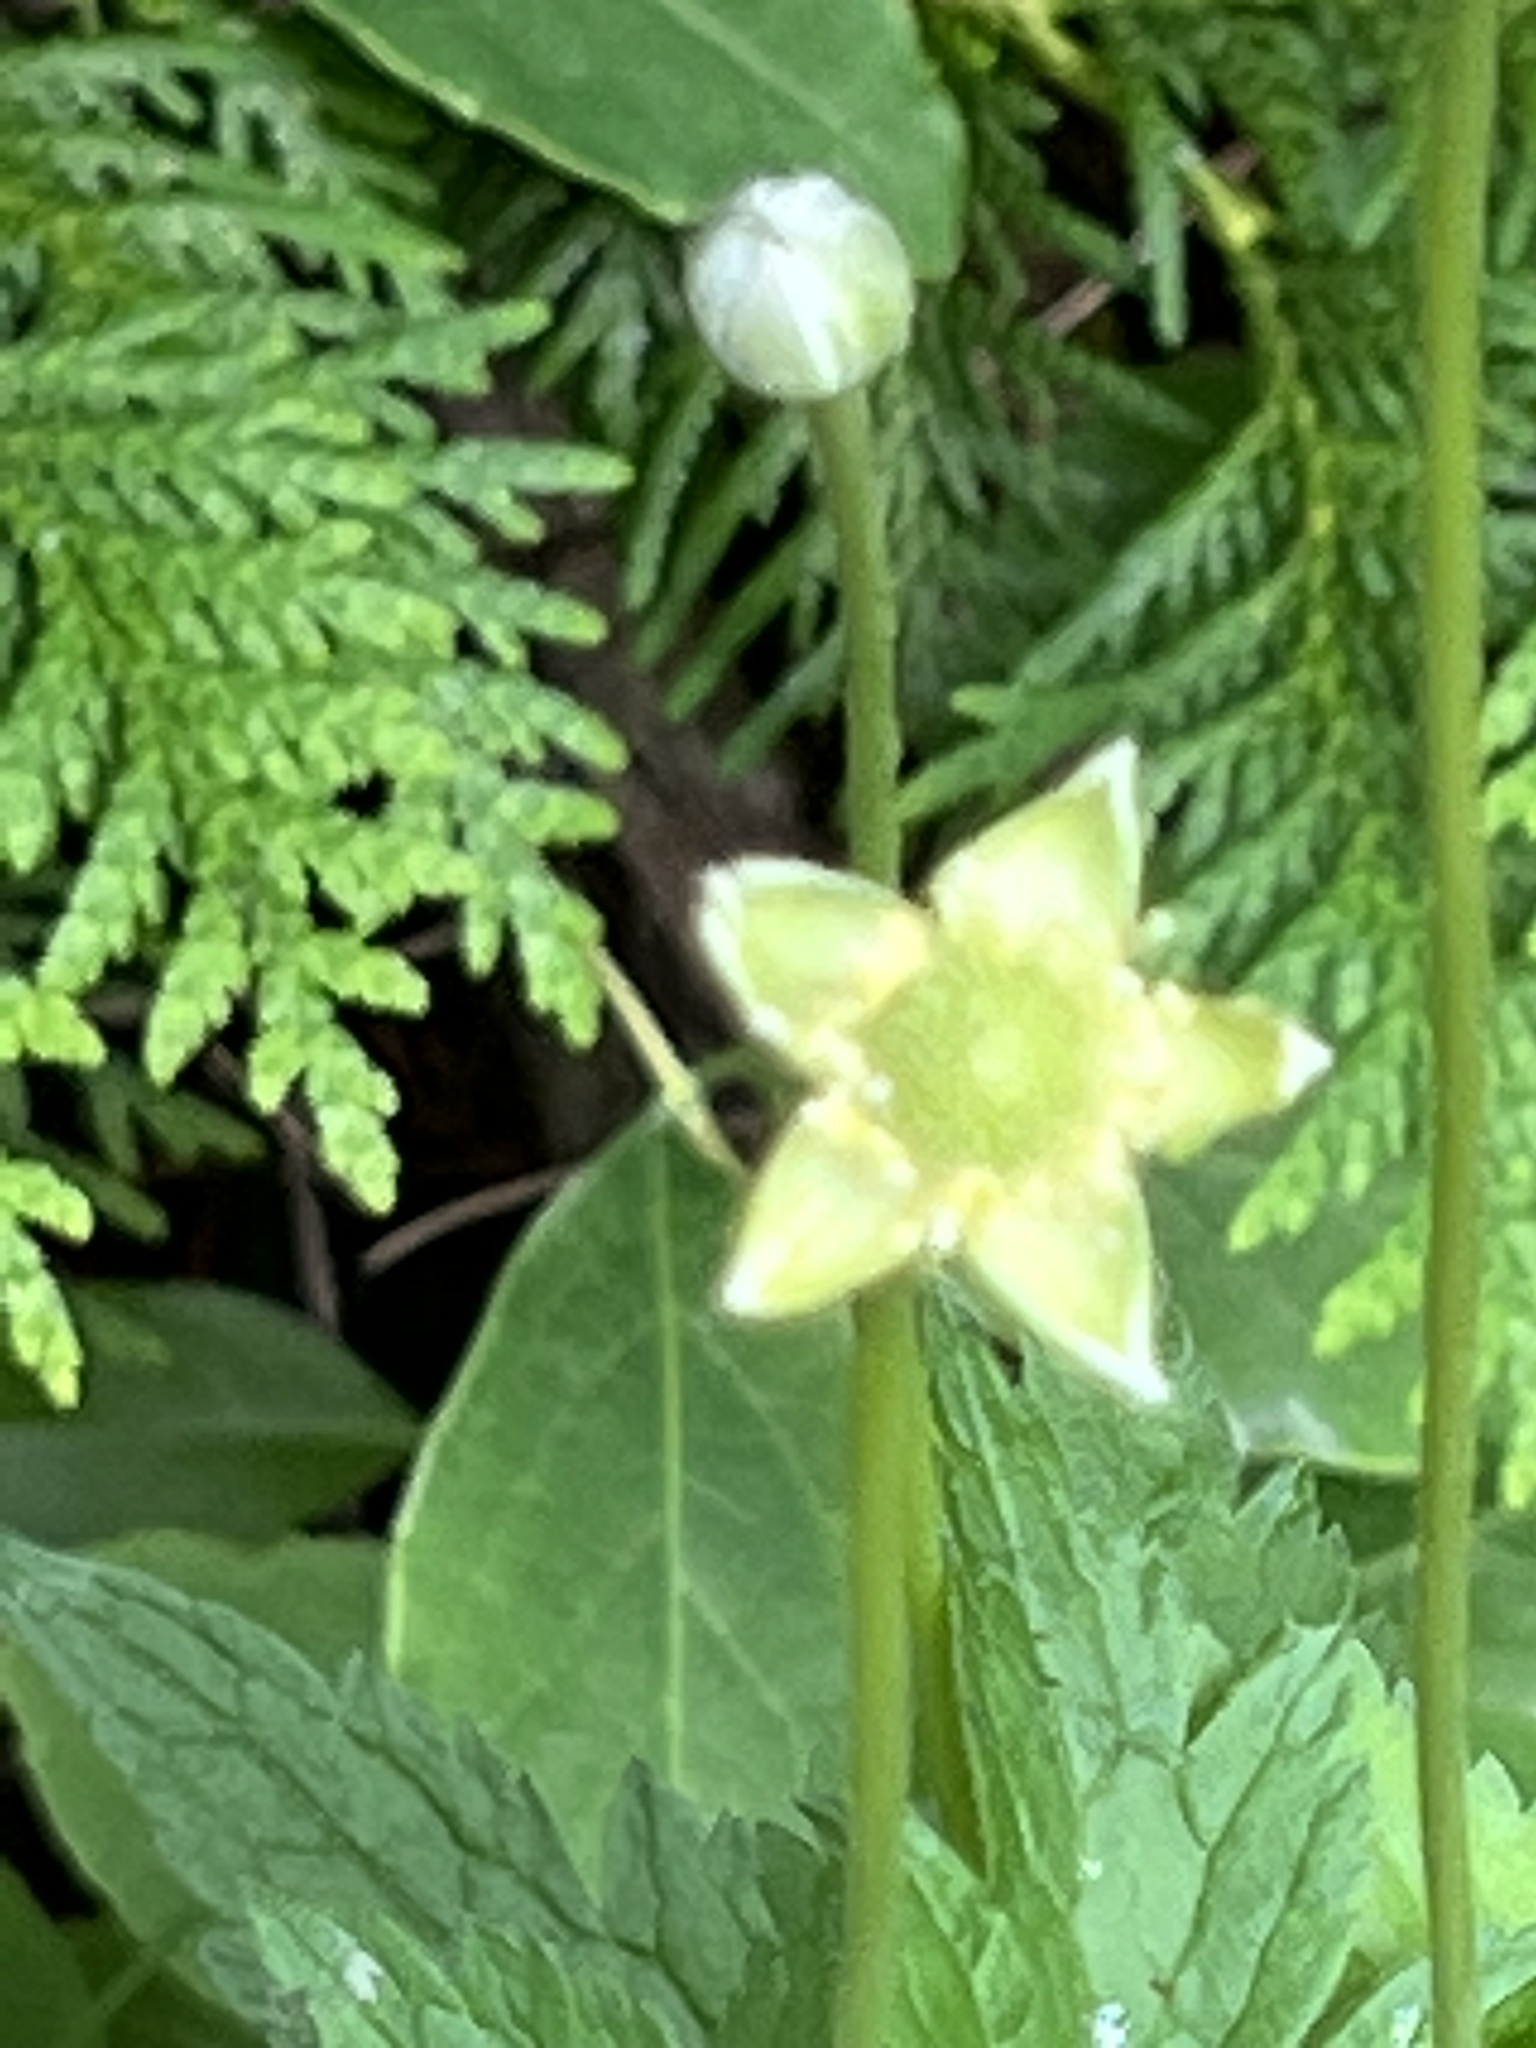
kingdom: Plantae
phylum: Tracheophyta
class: Magnoliopsida
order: Ranunculales
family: Ranunculaceae
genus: Anemone
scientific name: Anemone virginiana
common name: Tall anemone
